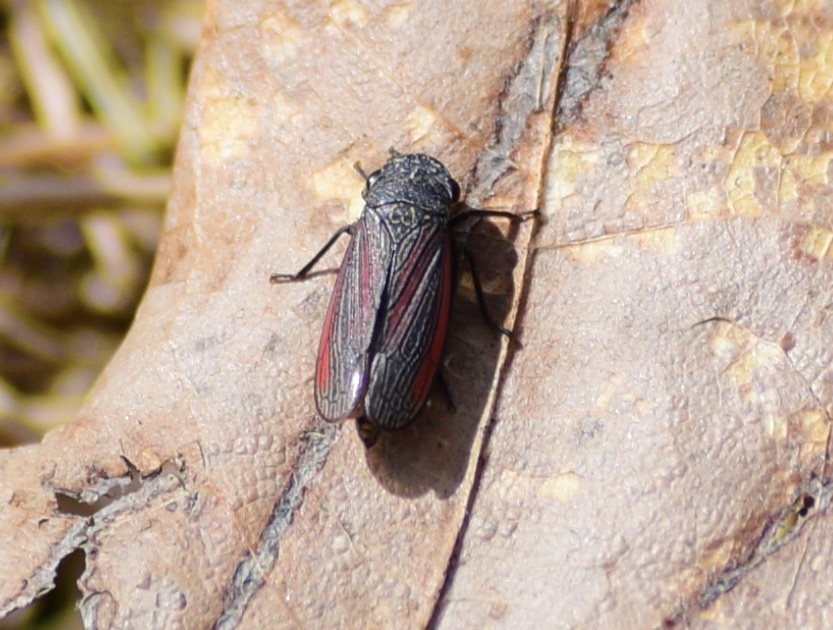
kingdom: Animalia
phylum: Arthropoda
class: Insecta
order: Hemiptera
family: Cicadellidae
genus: Cuerna
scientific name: Cuerna striata
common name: Striped leafhopper
